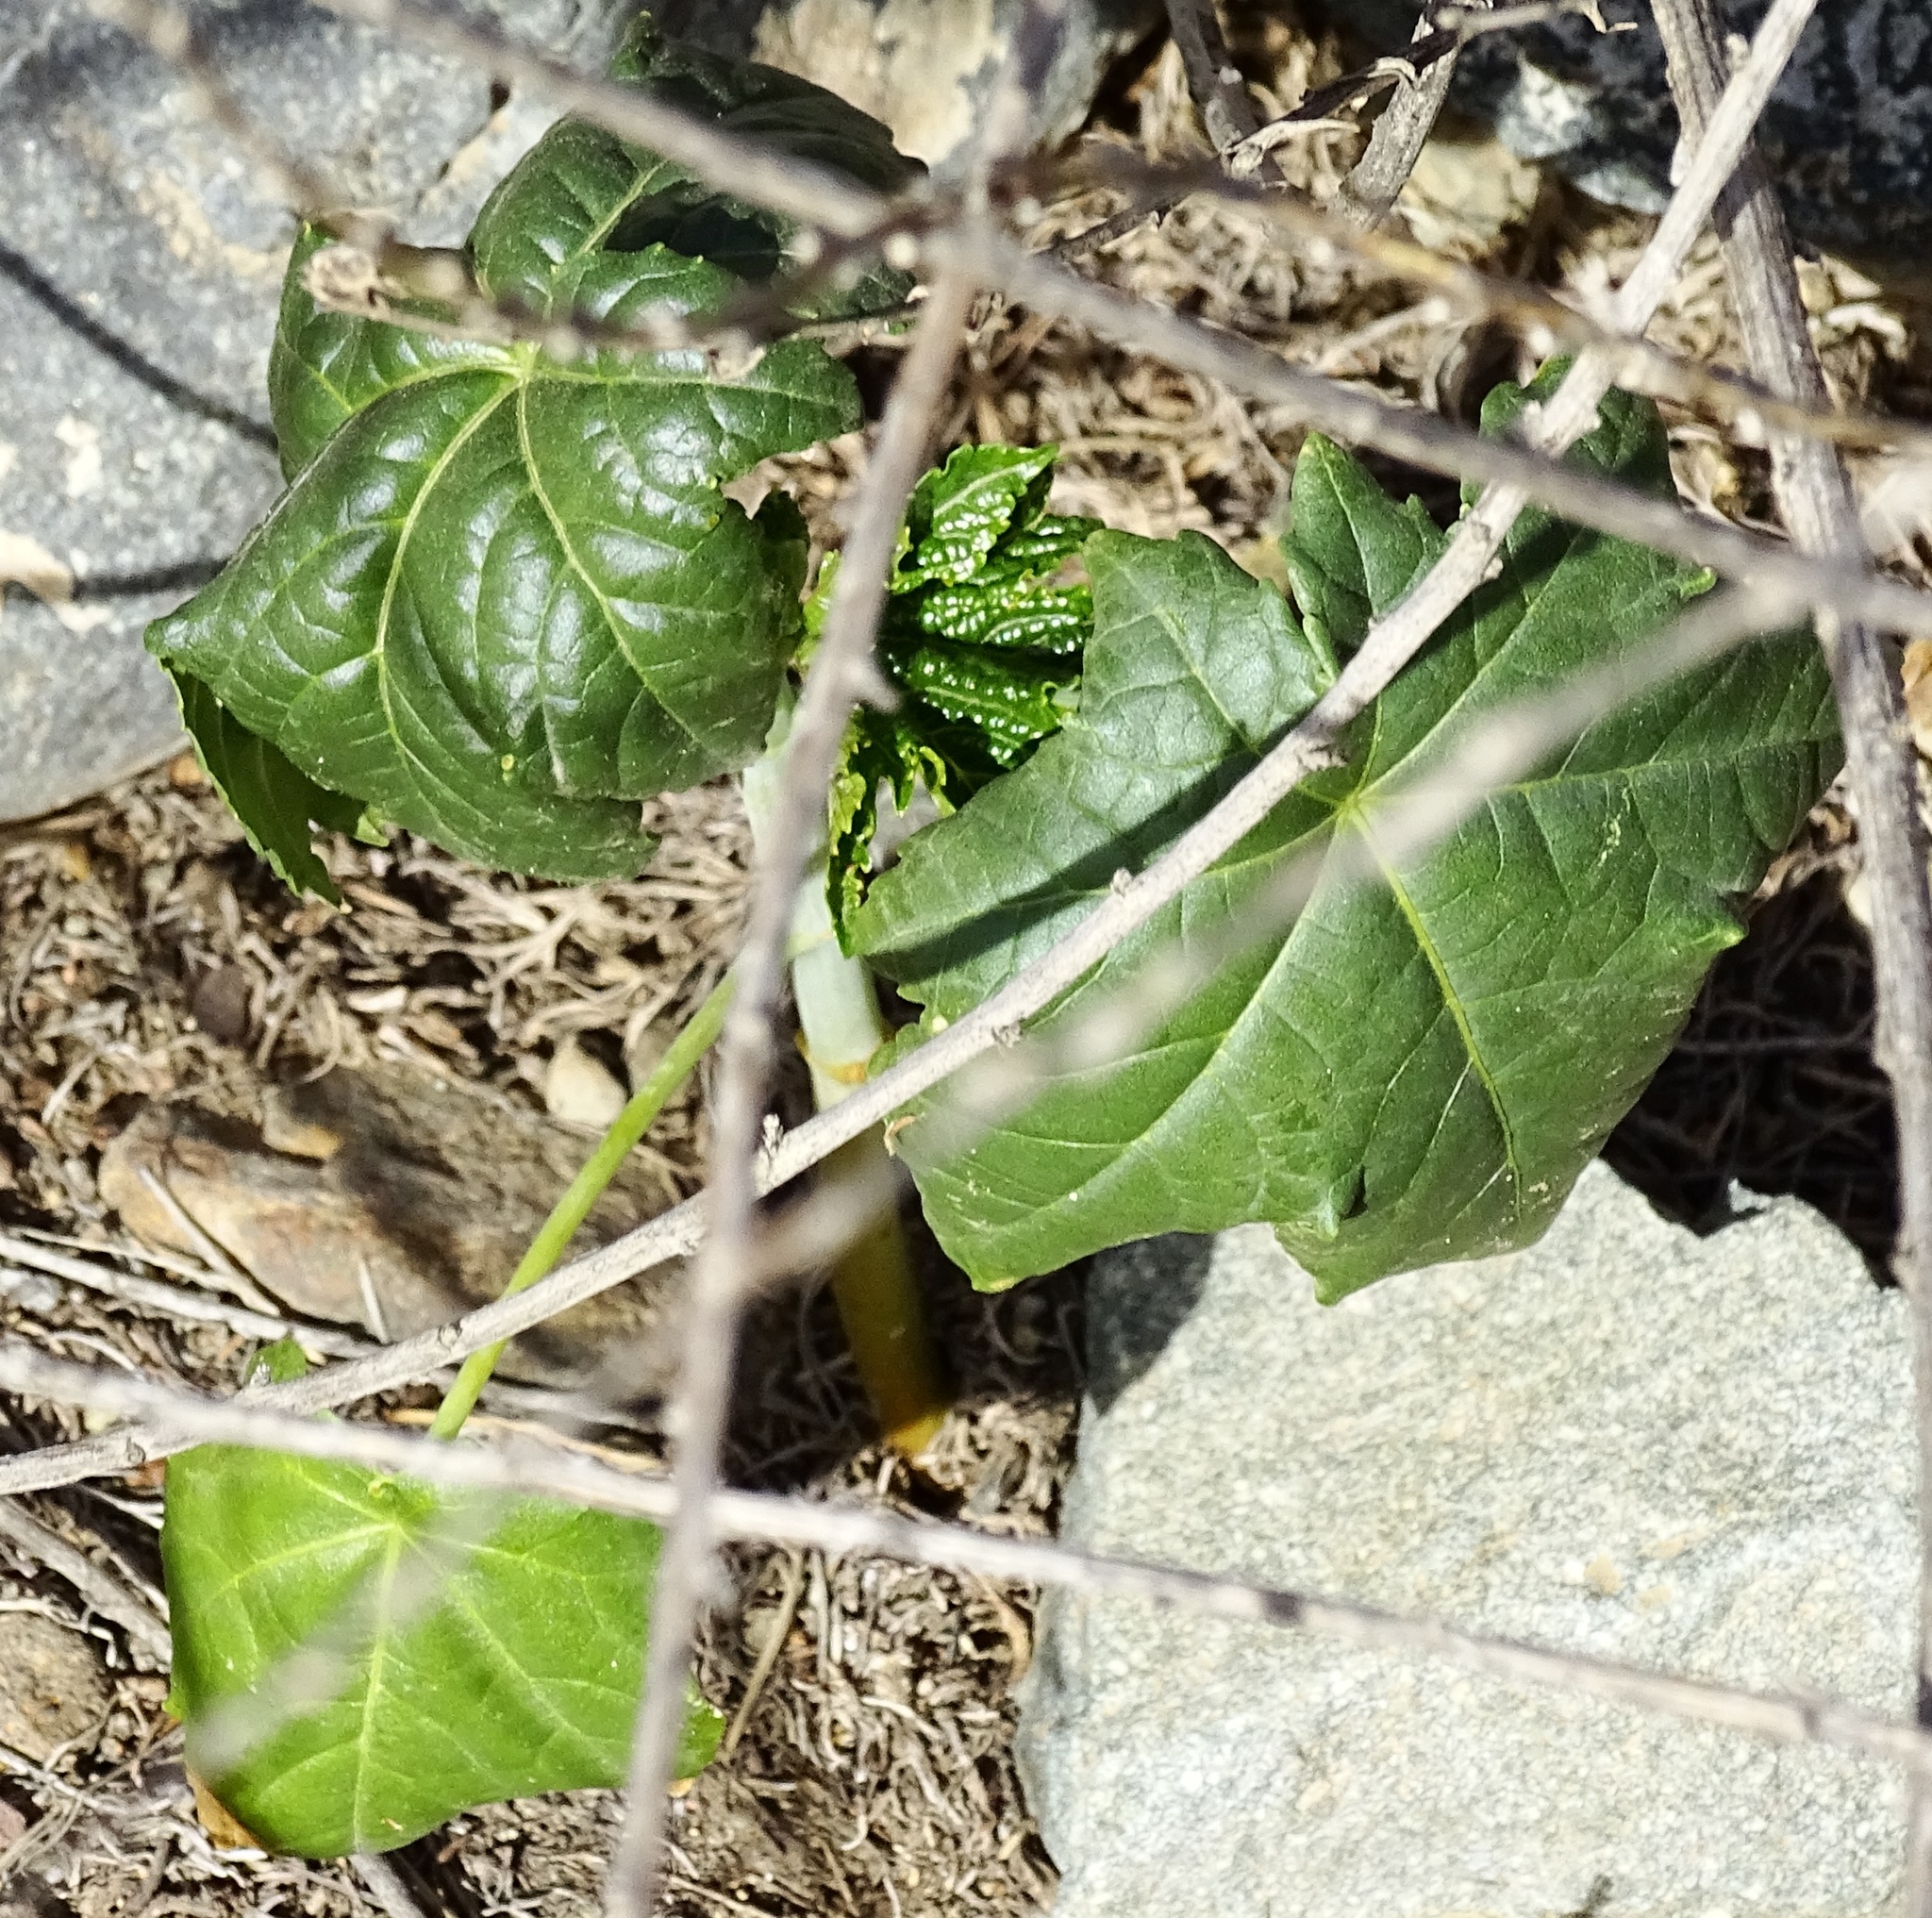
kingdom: Plantae
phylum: Tracheophyta
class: Magnoliopsida
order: Malpighiales
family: Euphorbiaceae
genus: Ricinus
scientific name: Ricinus communis
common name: Castor-oil-plant
